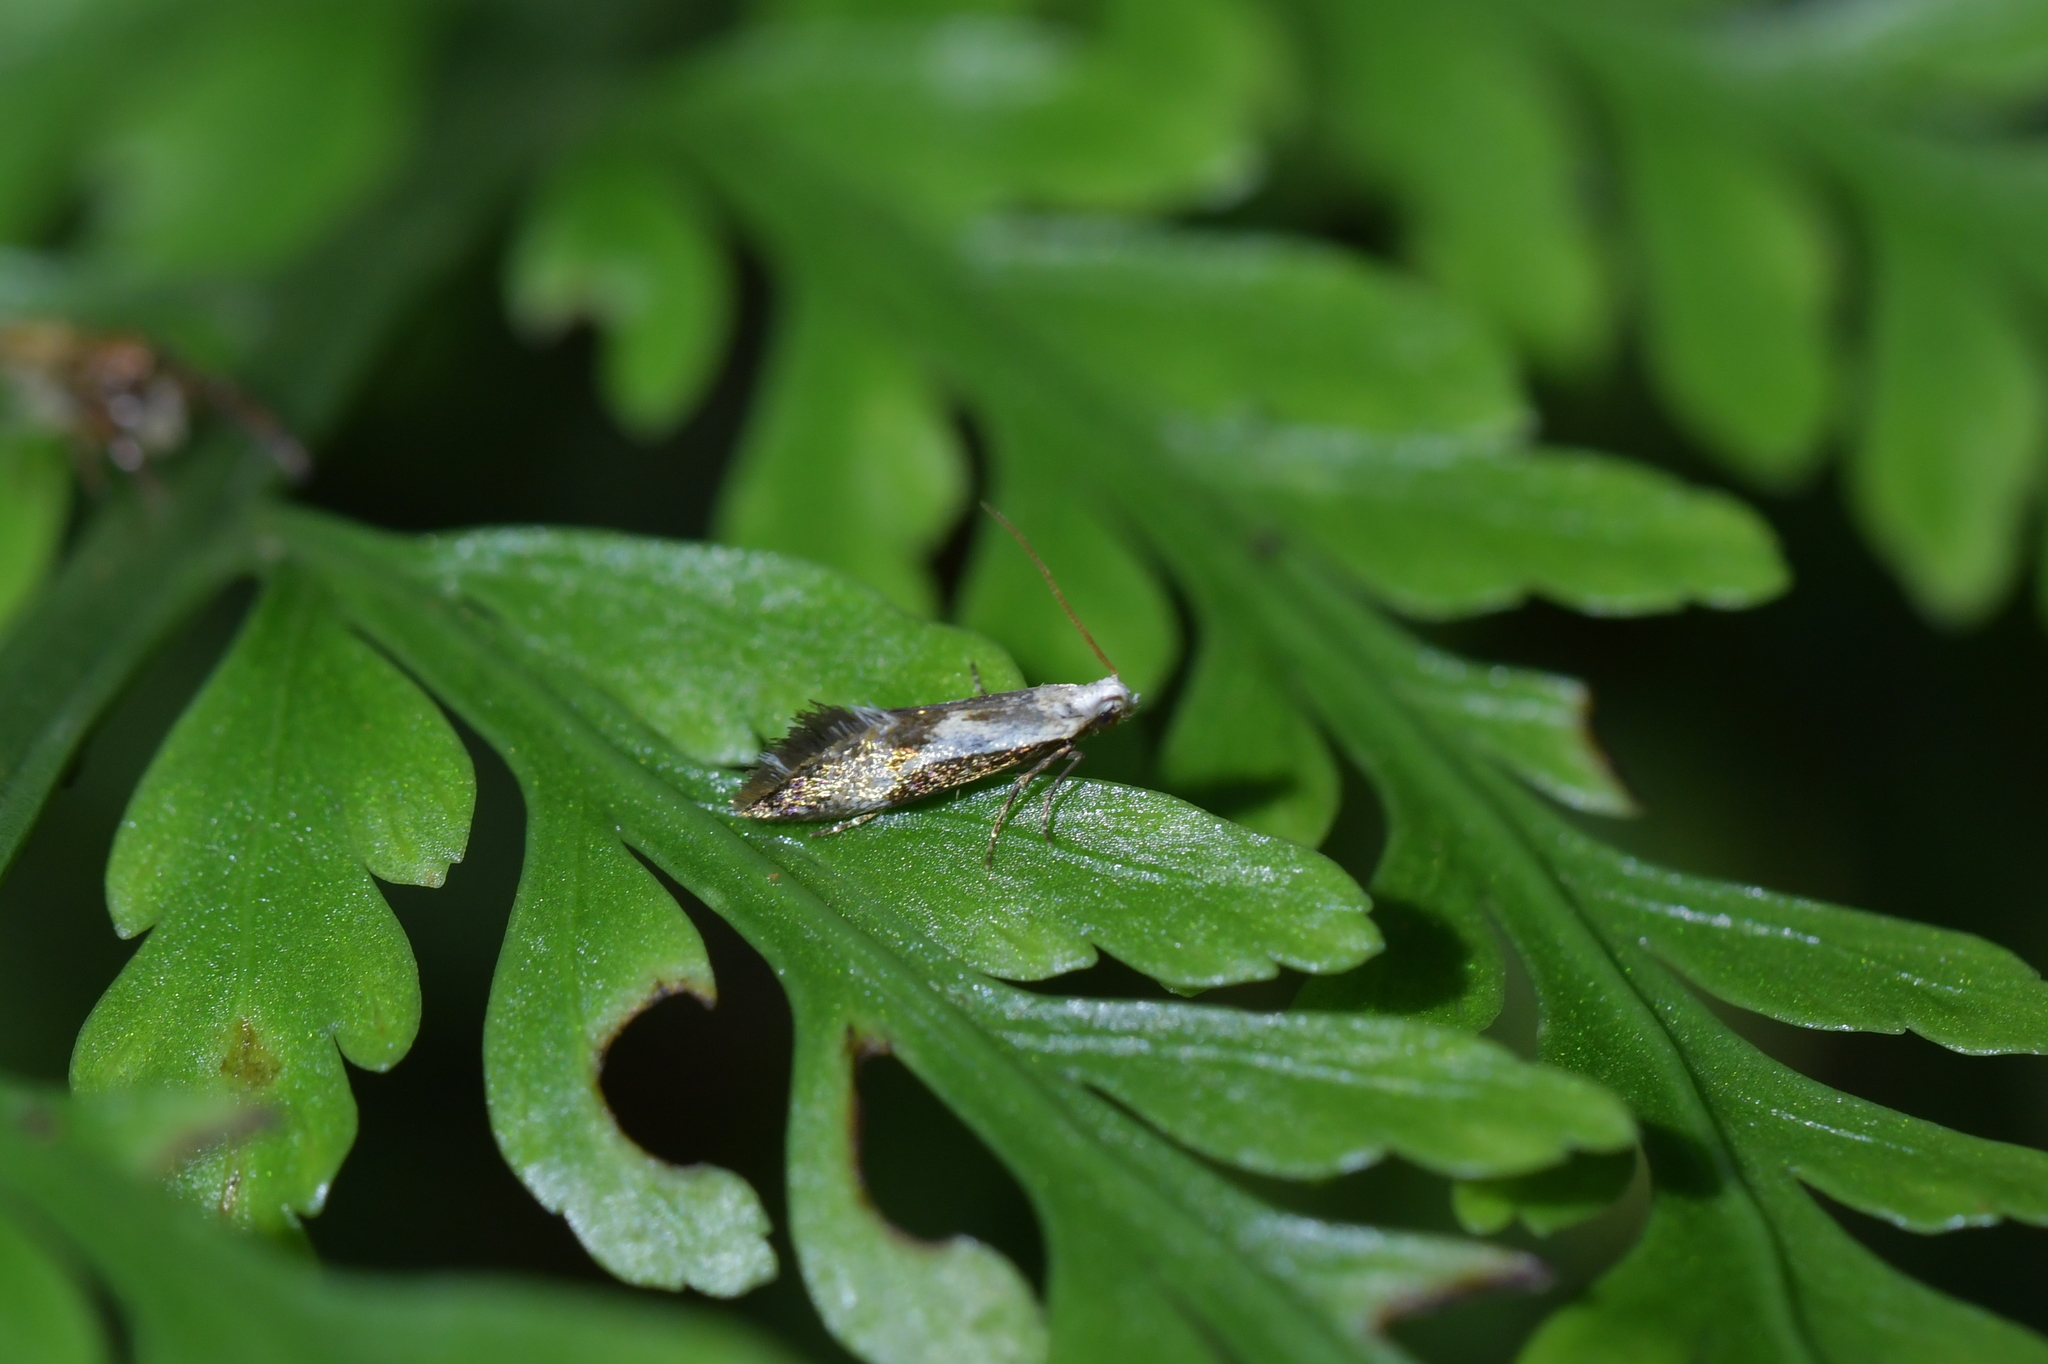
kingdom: Animalia
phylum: Arthropoda
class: Insecta
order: Lepidoptera
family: Mnesarchaeidae
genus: Mnesarchella
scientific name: Mnesarchella fusilella
